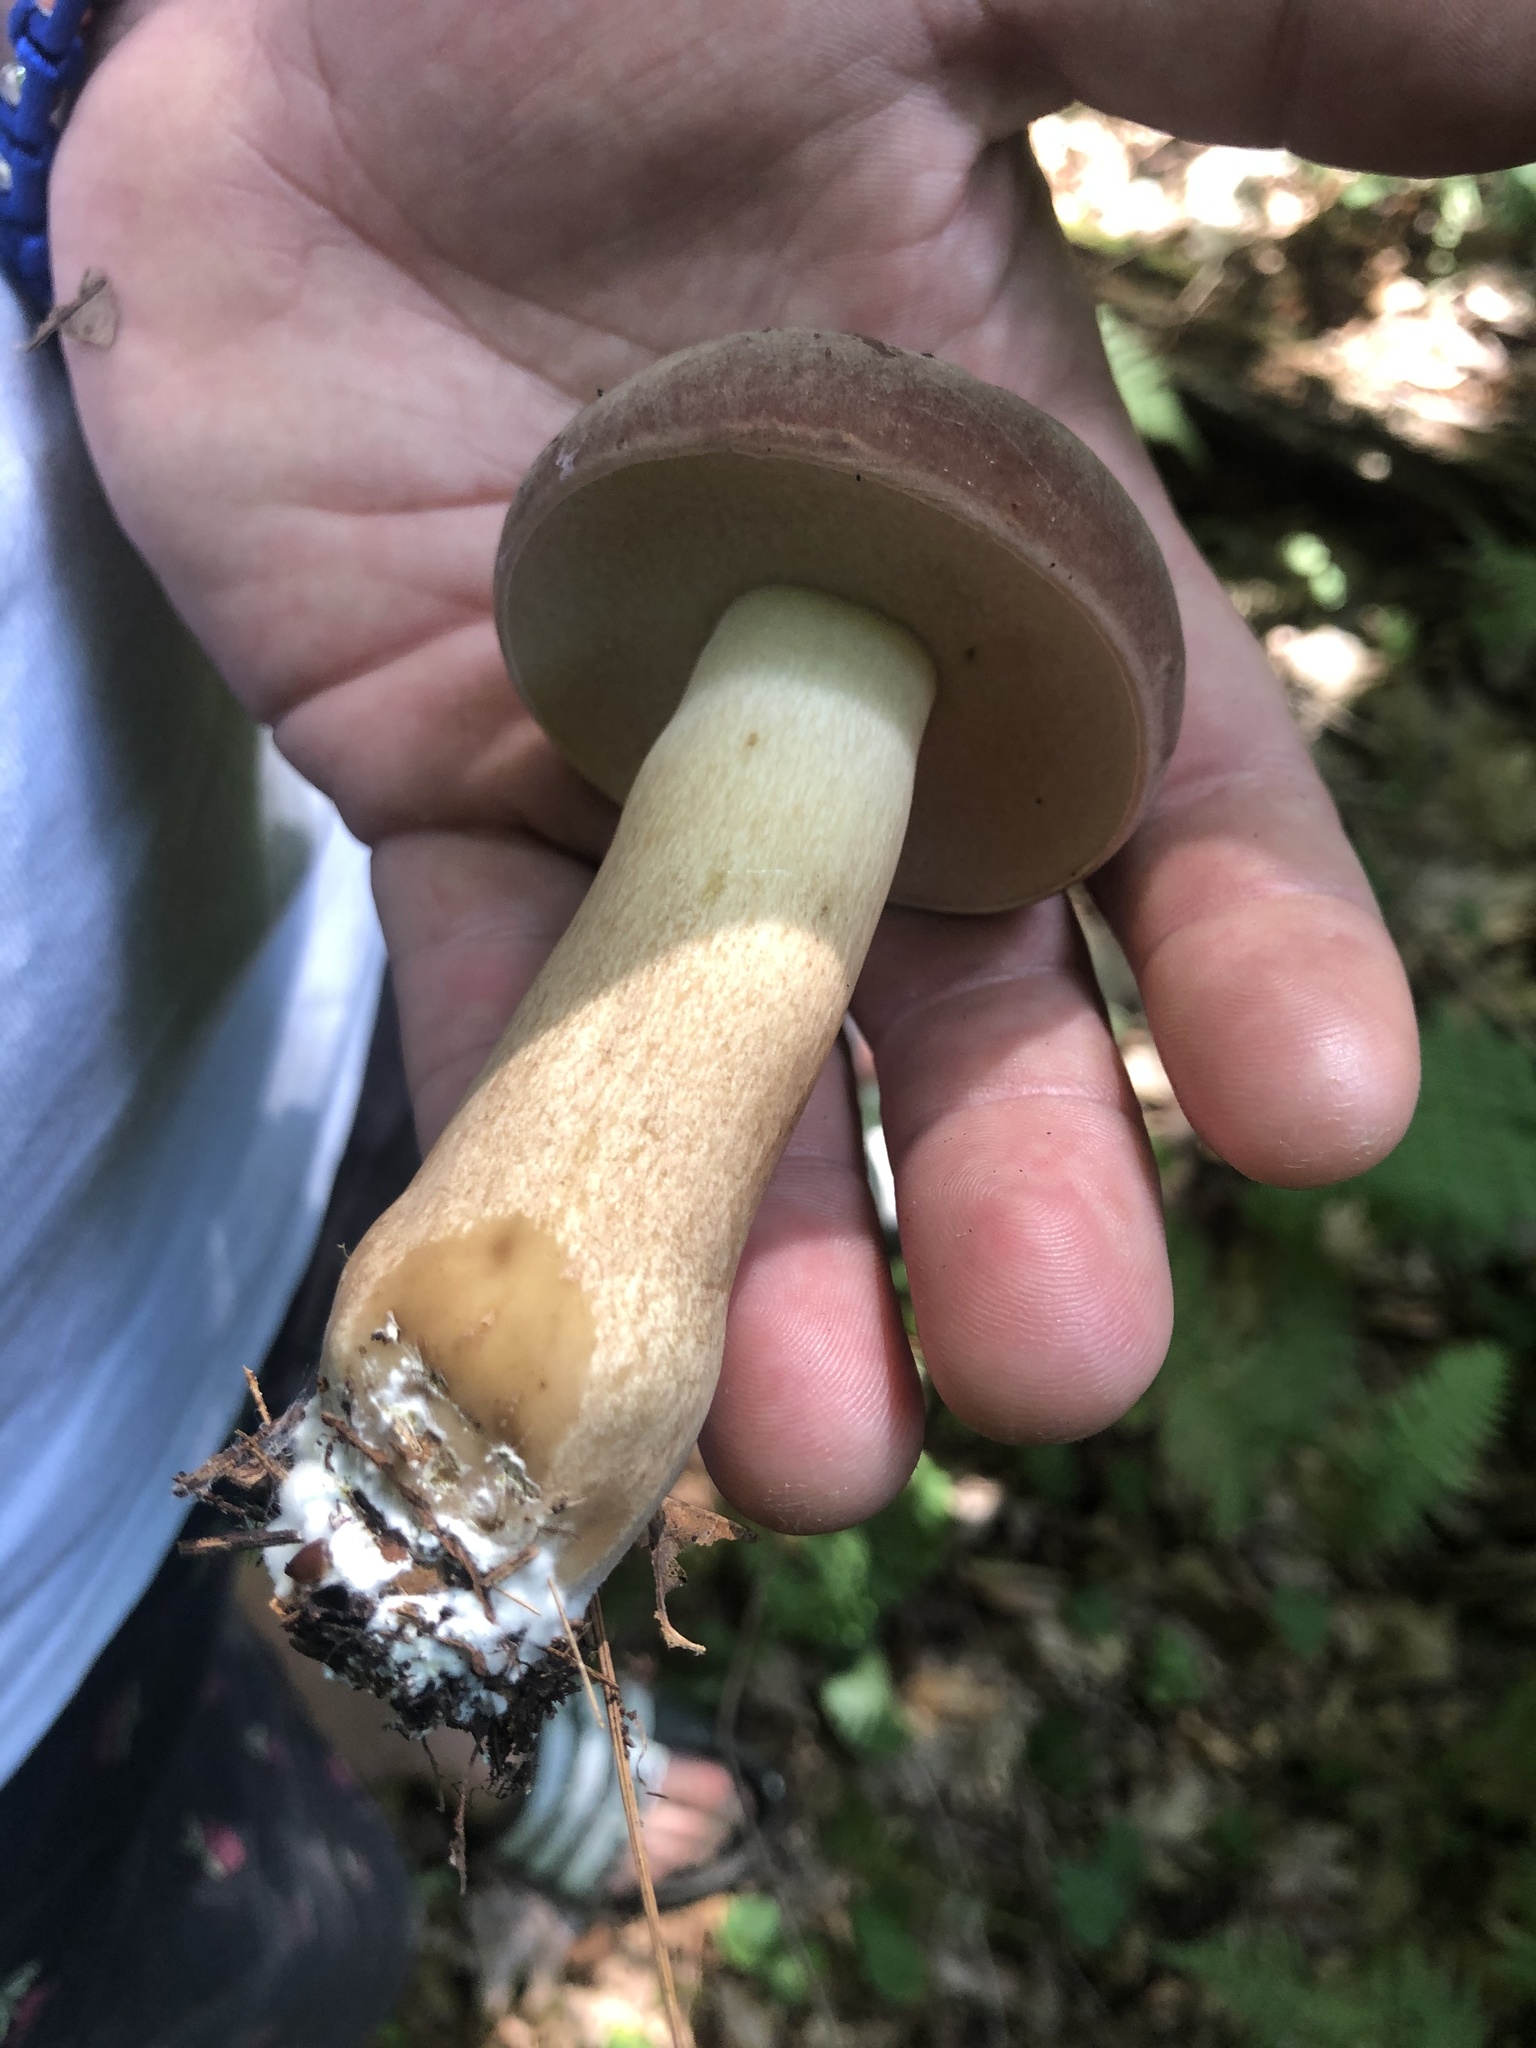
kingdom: Fungi
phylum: Basidiomycota
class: Agaricomycetes
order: Boletales
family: Boletaceae
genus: Tylopilus
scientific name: Tylopilus rubrobrunneus
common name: Reddish brown bitter bolete
